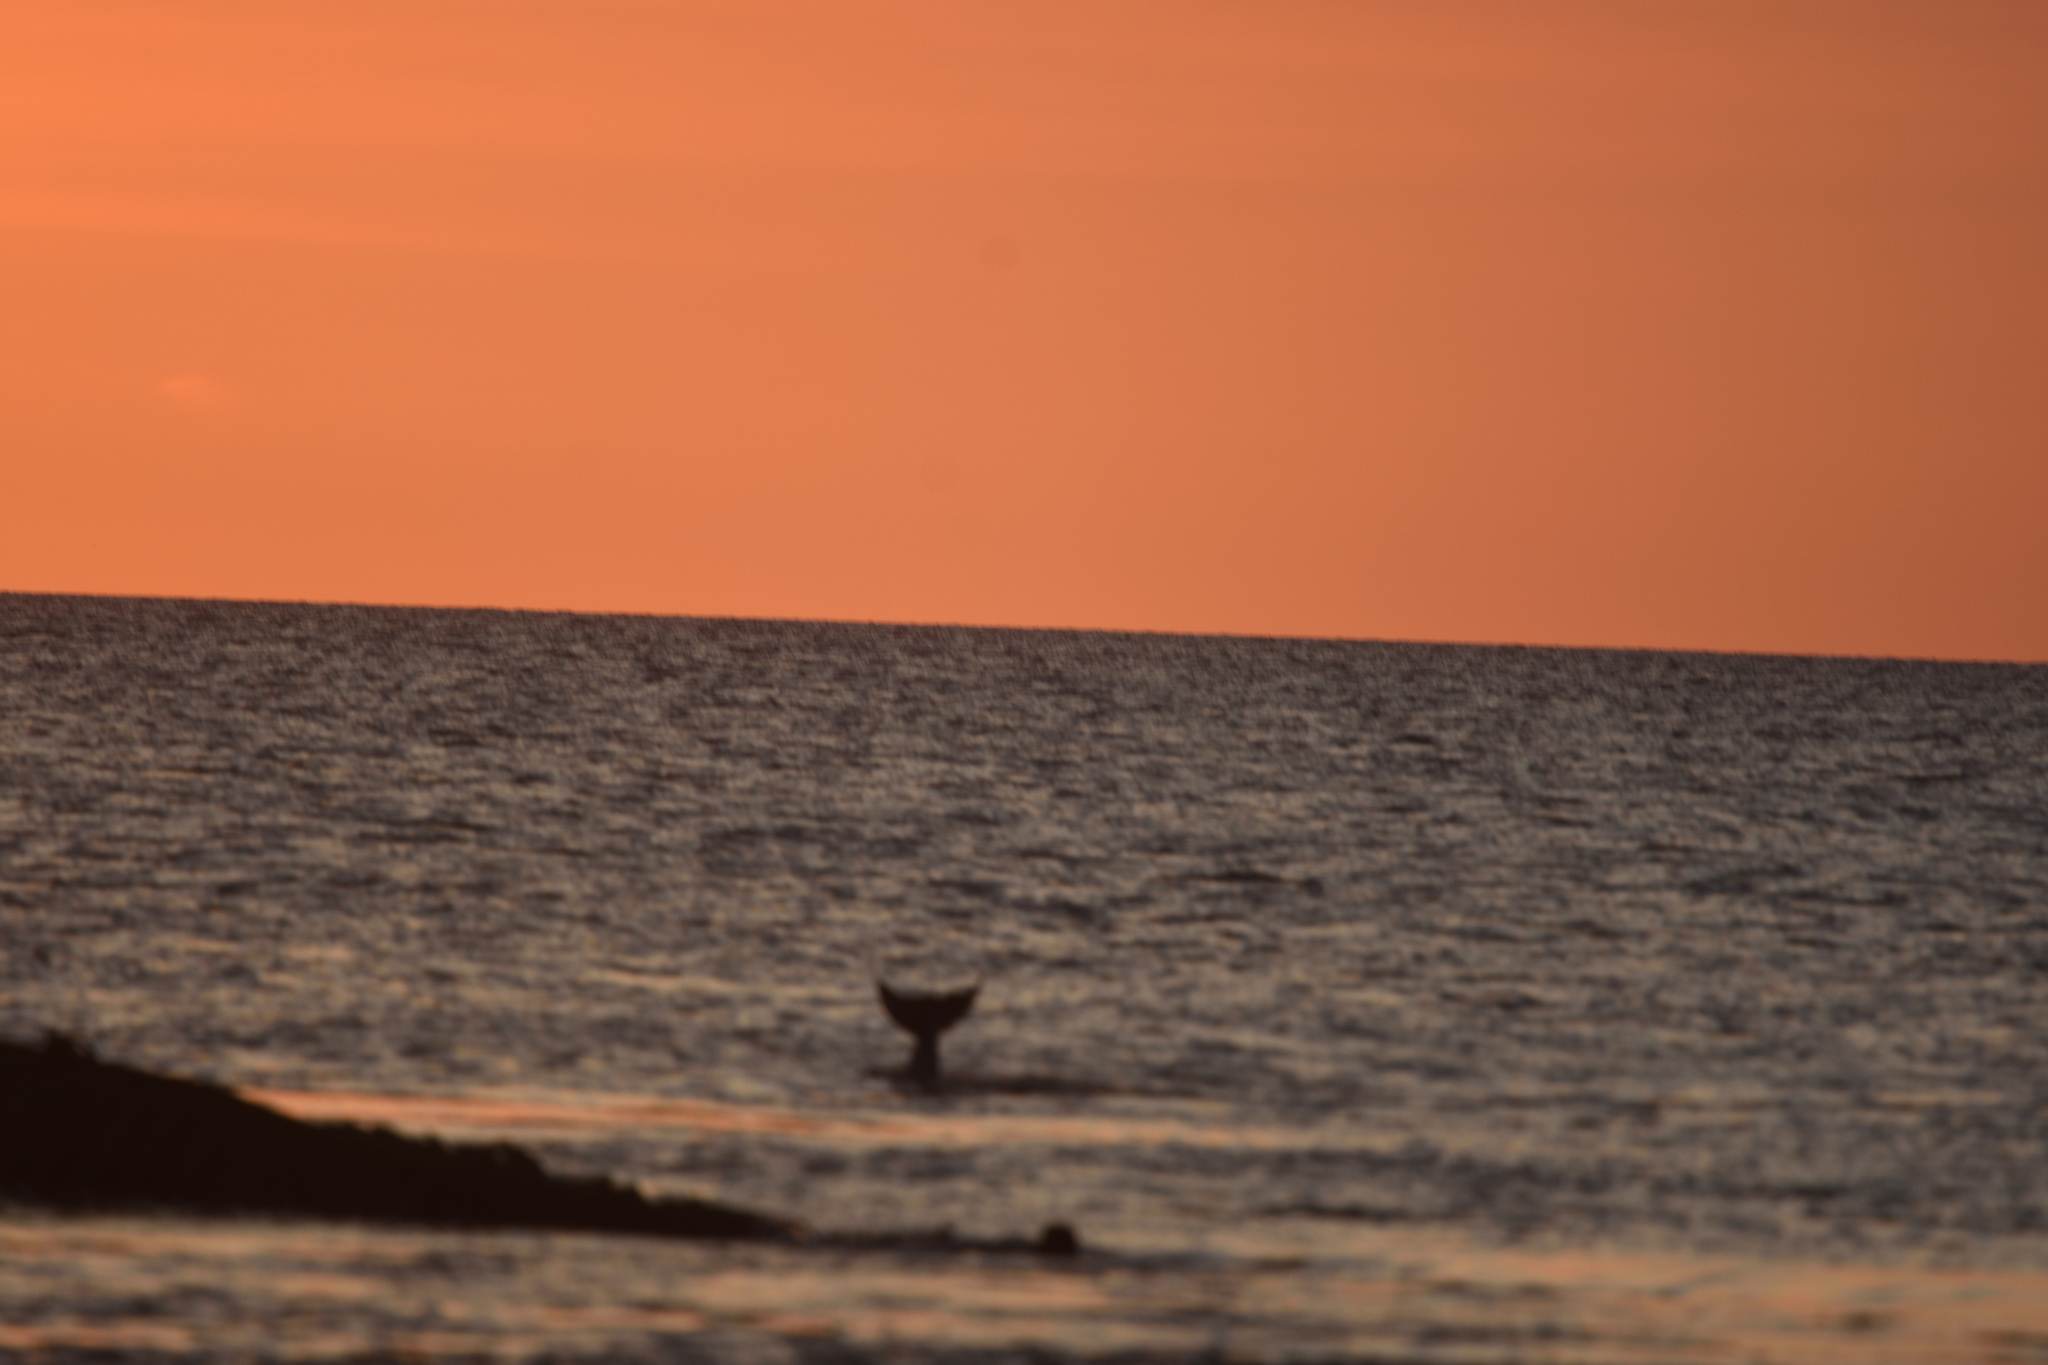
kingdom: Animalia
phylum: Chordata
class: Mammalia
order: Cetacea
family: Delphinidae
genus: Tursiops
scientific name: Tursiops truncatus
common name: Bottlenose dolphin
